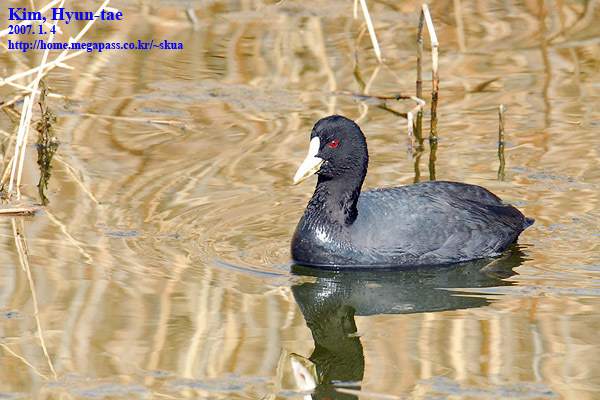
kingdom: Animalia
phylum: Chordata
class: Aves
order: Gruiformes
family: Rallidae
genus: Fulica
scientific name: Fulica atra
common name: Eurasian coot
